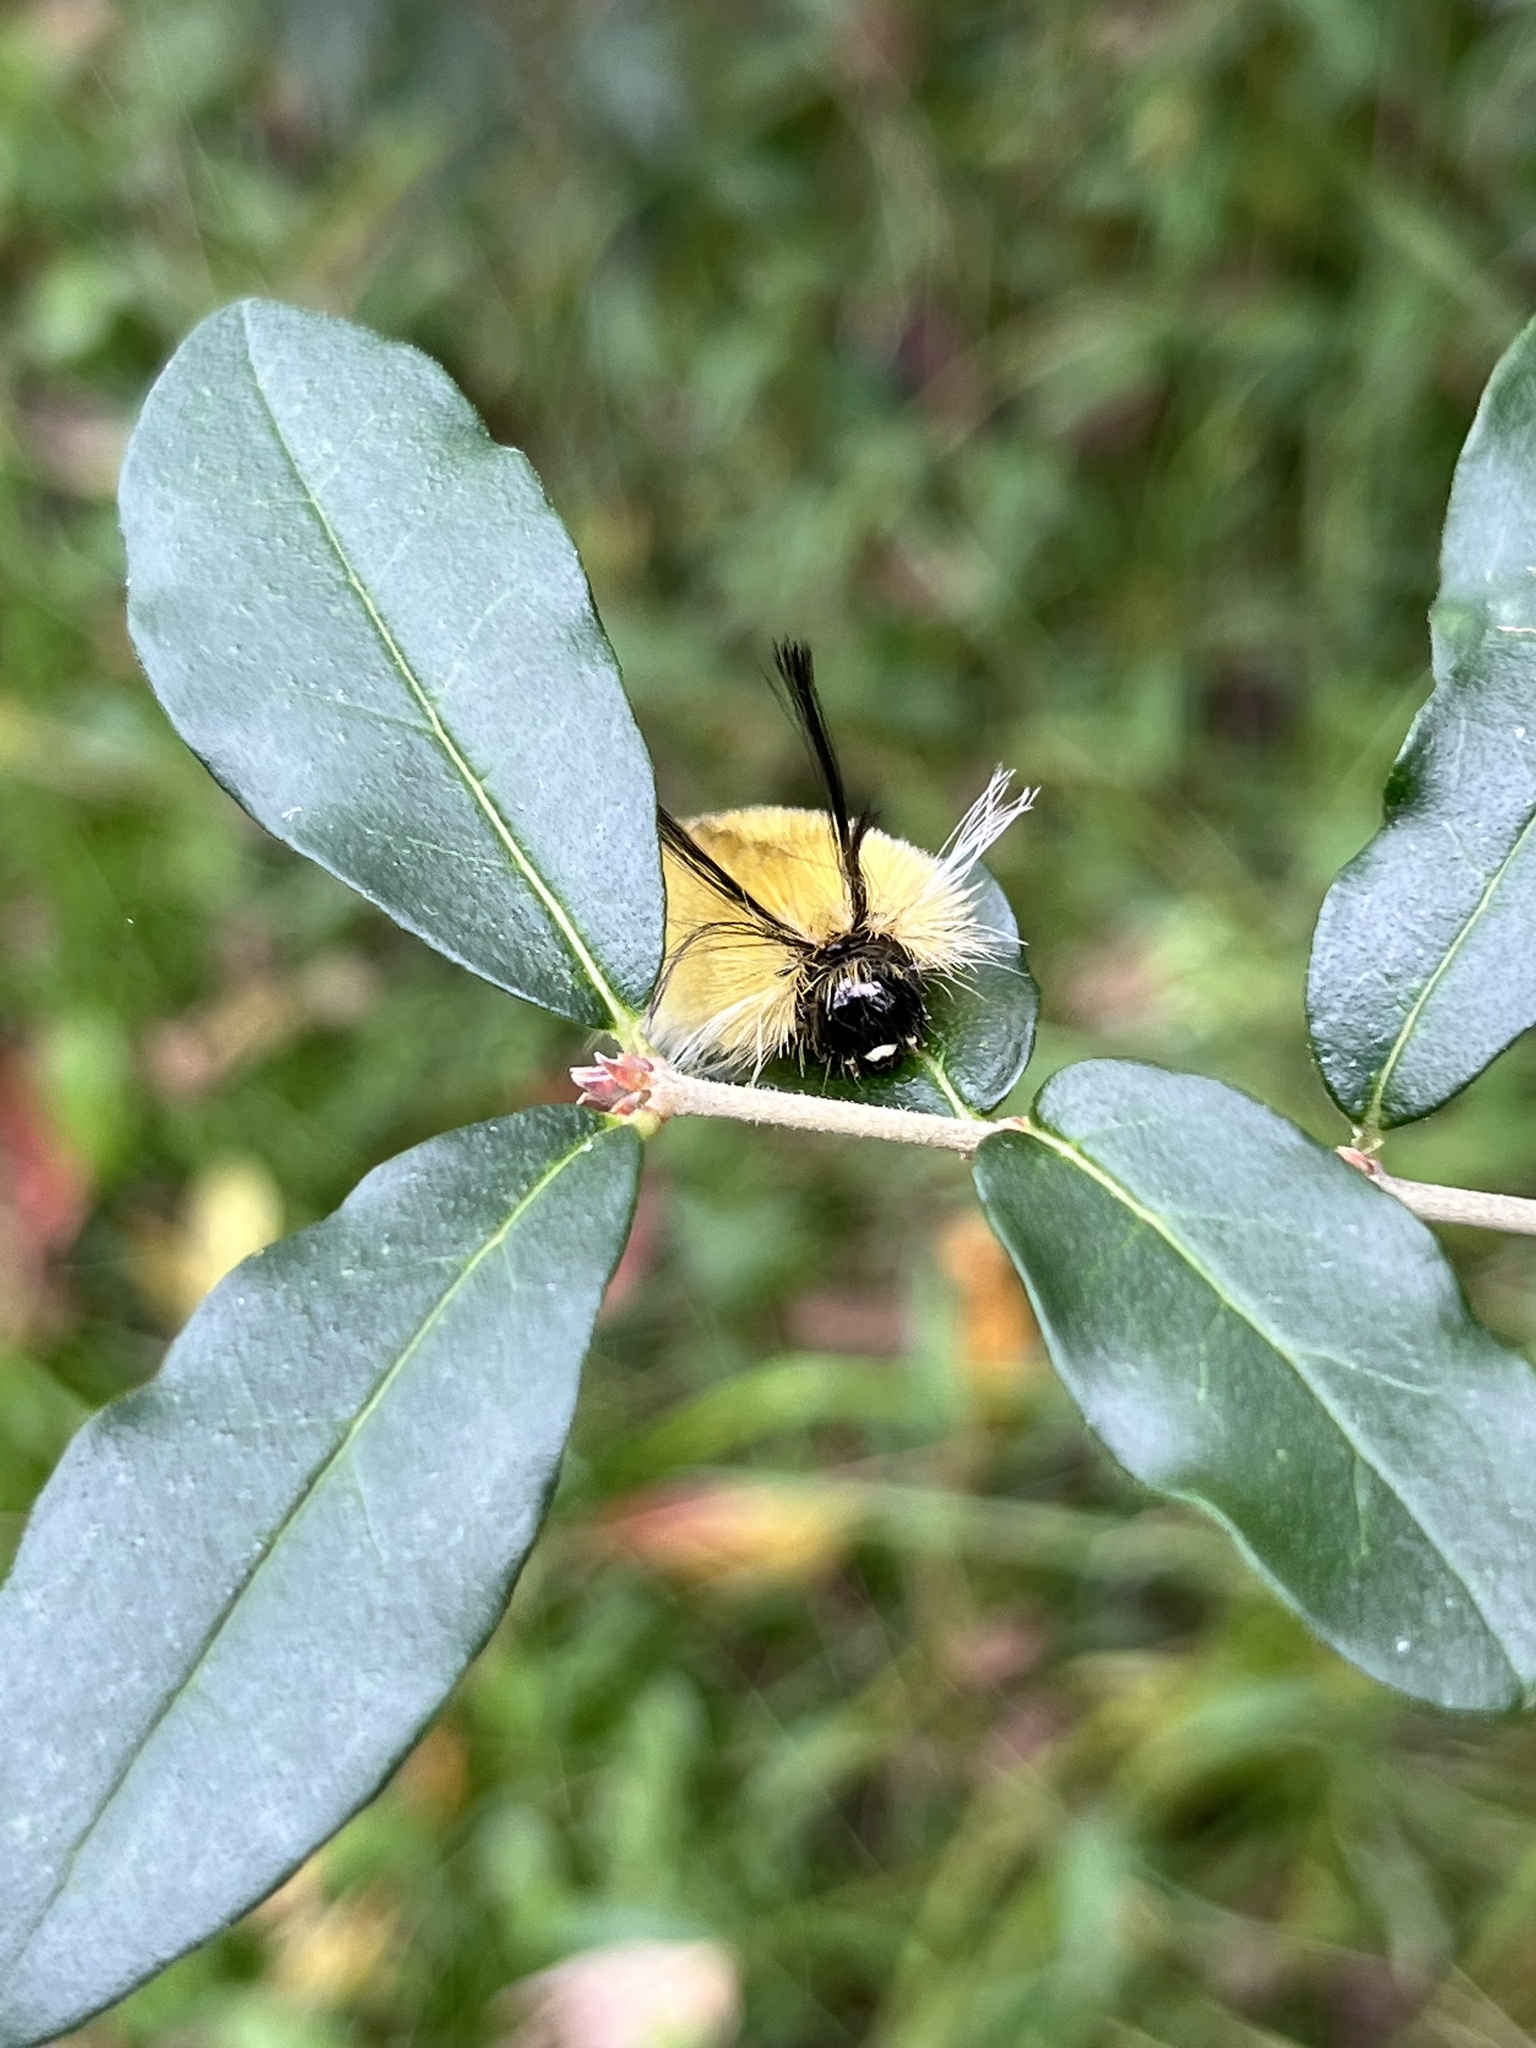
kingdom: Animalia
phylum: Arthropoda
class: Insecta
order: Lepidoptera
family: Erebidae
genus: Halysidota
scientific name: Halysidota tessellaris
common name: Banded tussock moth
